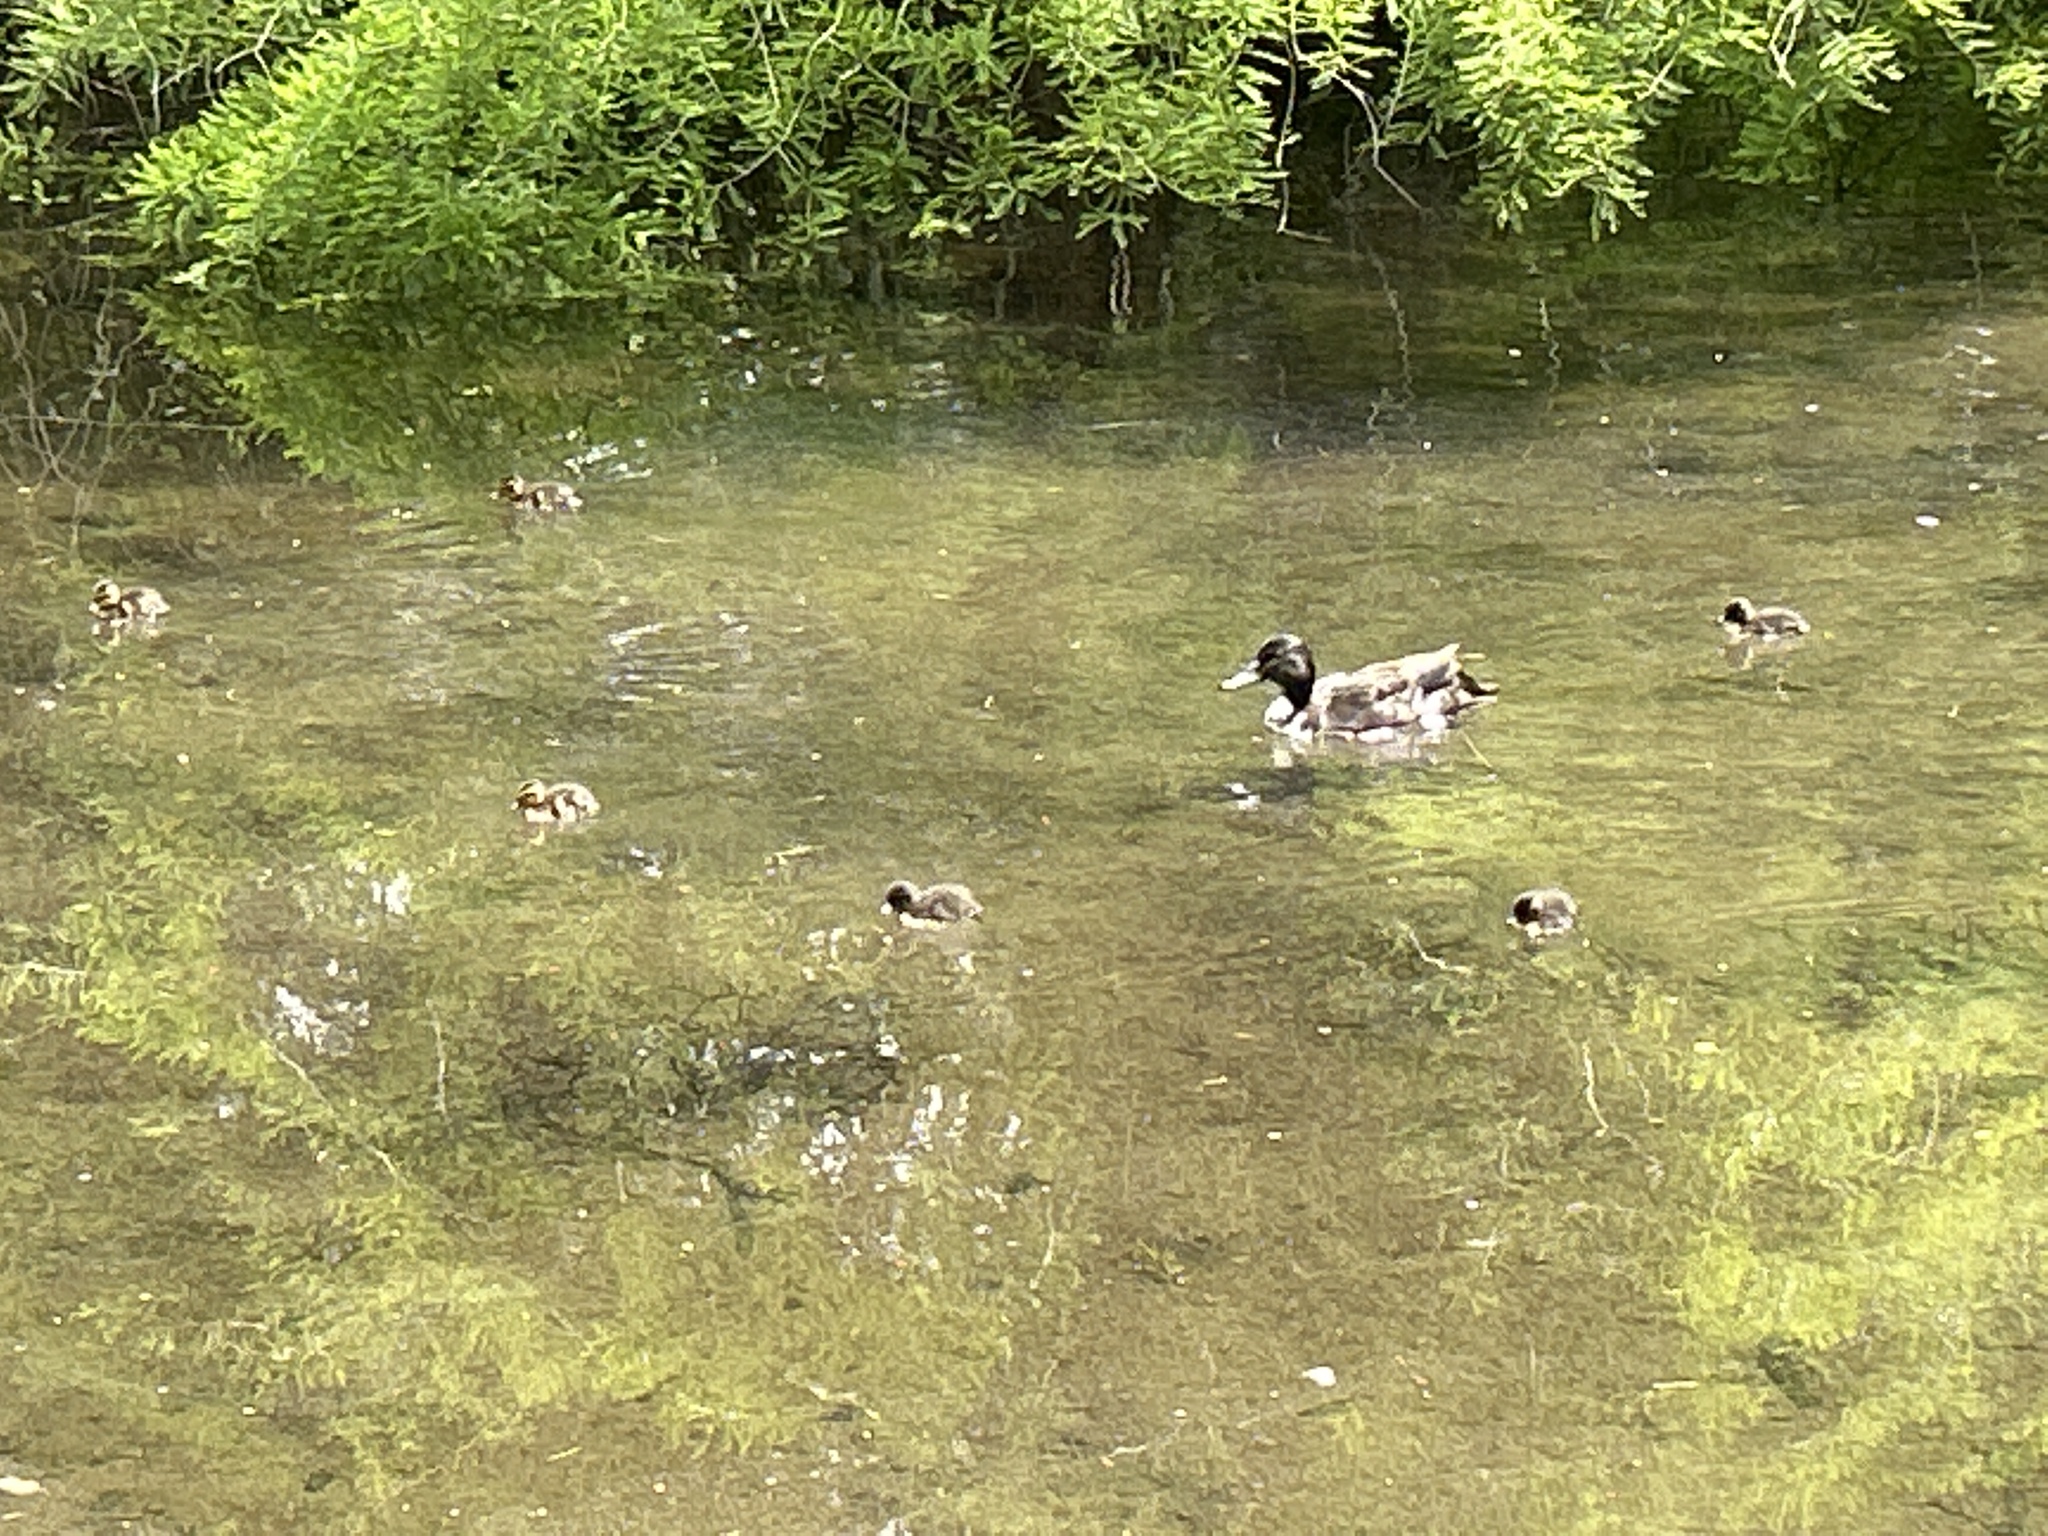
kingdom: Animalia
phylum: Chordata
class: Aves
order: Anseriformes
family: Anatidae
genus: Anas
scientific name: Anas platyrhynchos
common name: Mallard
